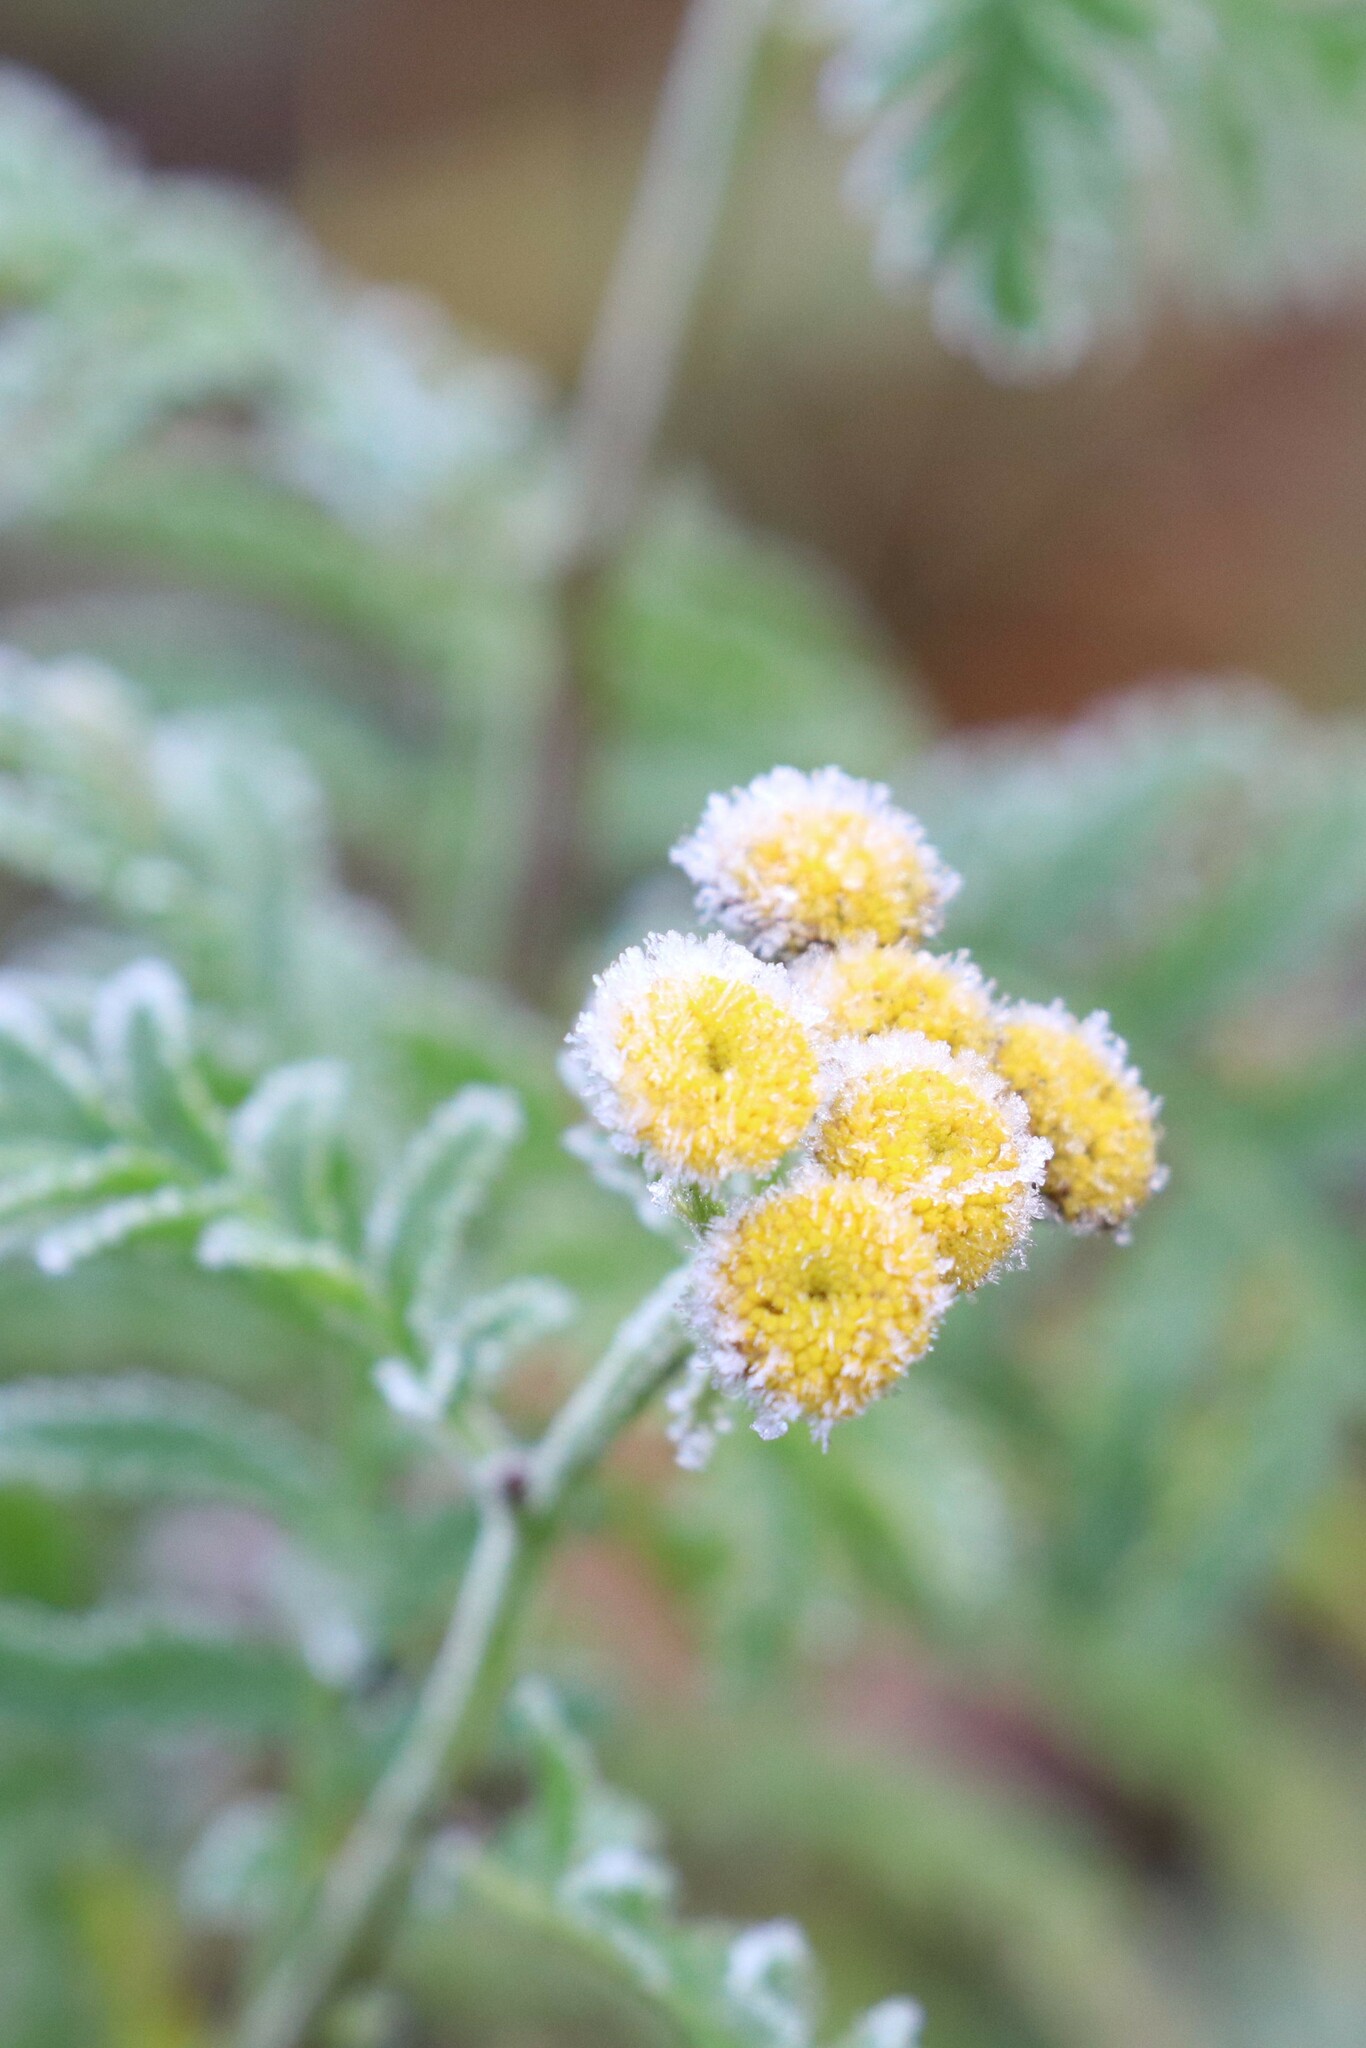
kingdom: Plantae
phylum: Tracheophyta
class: Magnoliopsida
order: Asterales
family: Asteraceae
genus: Tanacetum
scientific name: Tanacetum vulgare
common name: Common tansy
